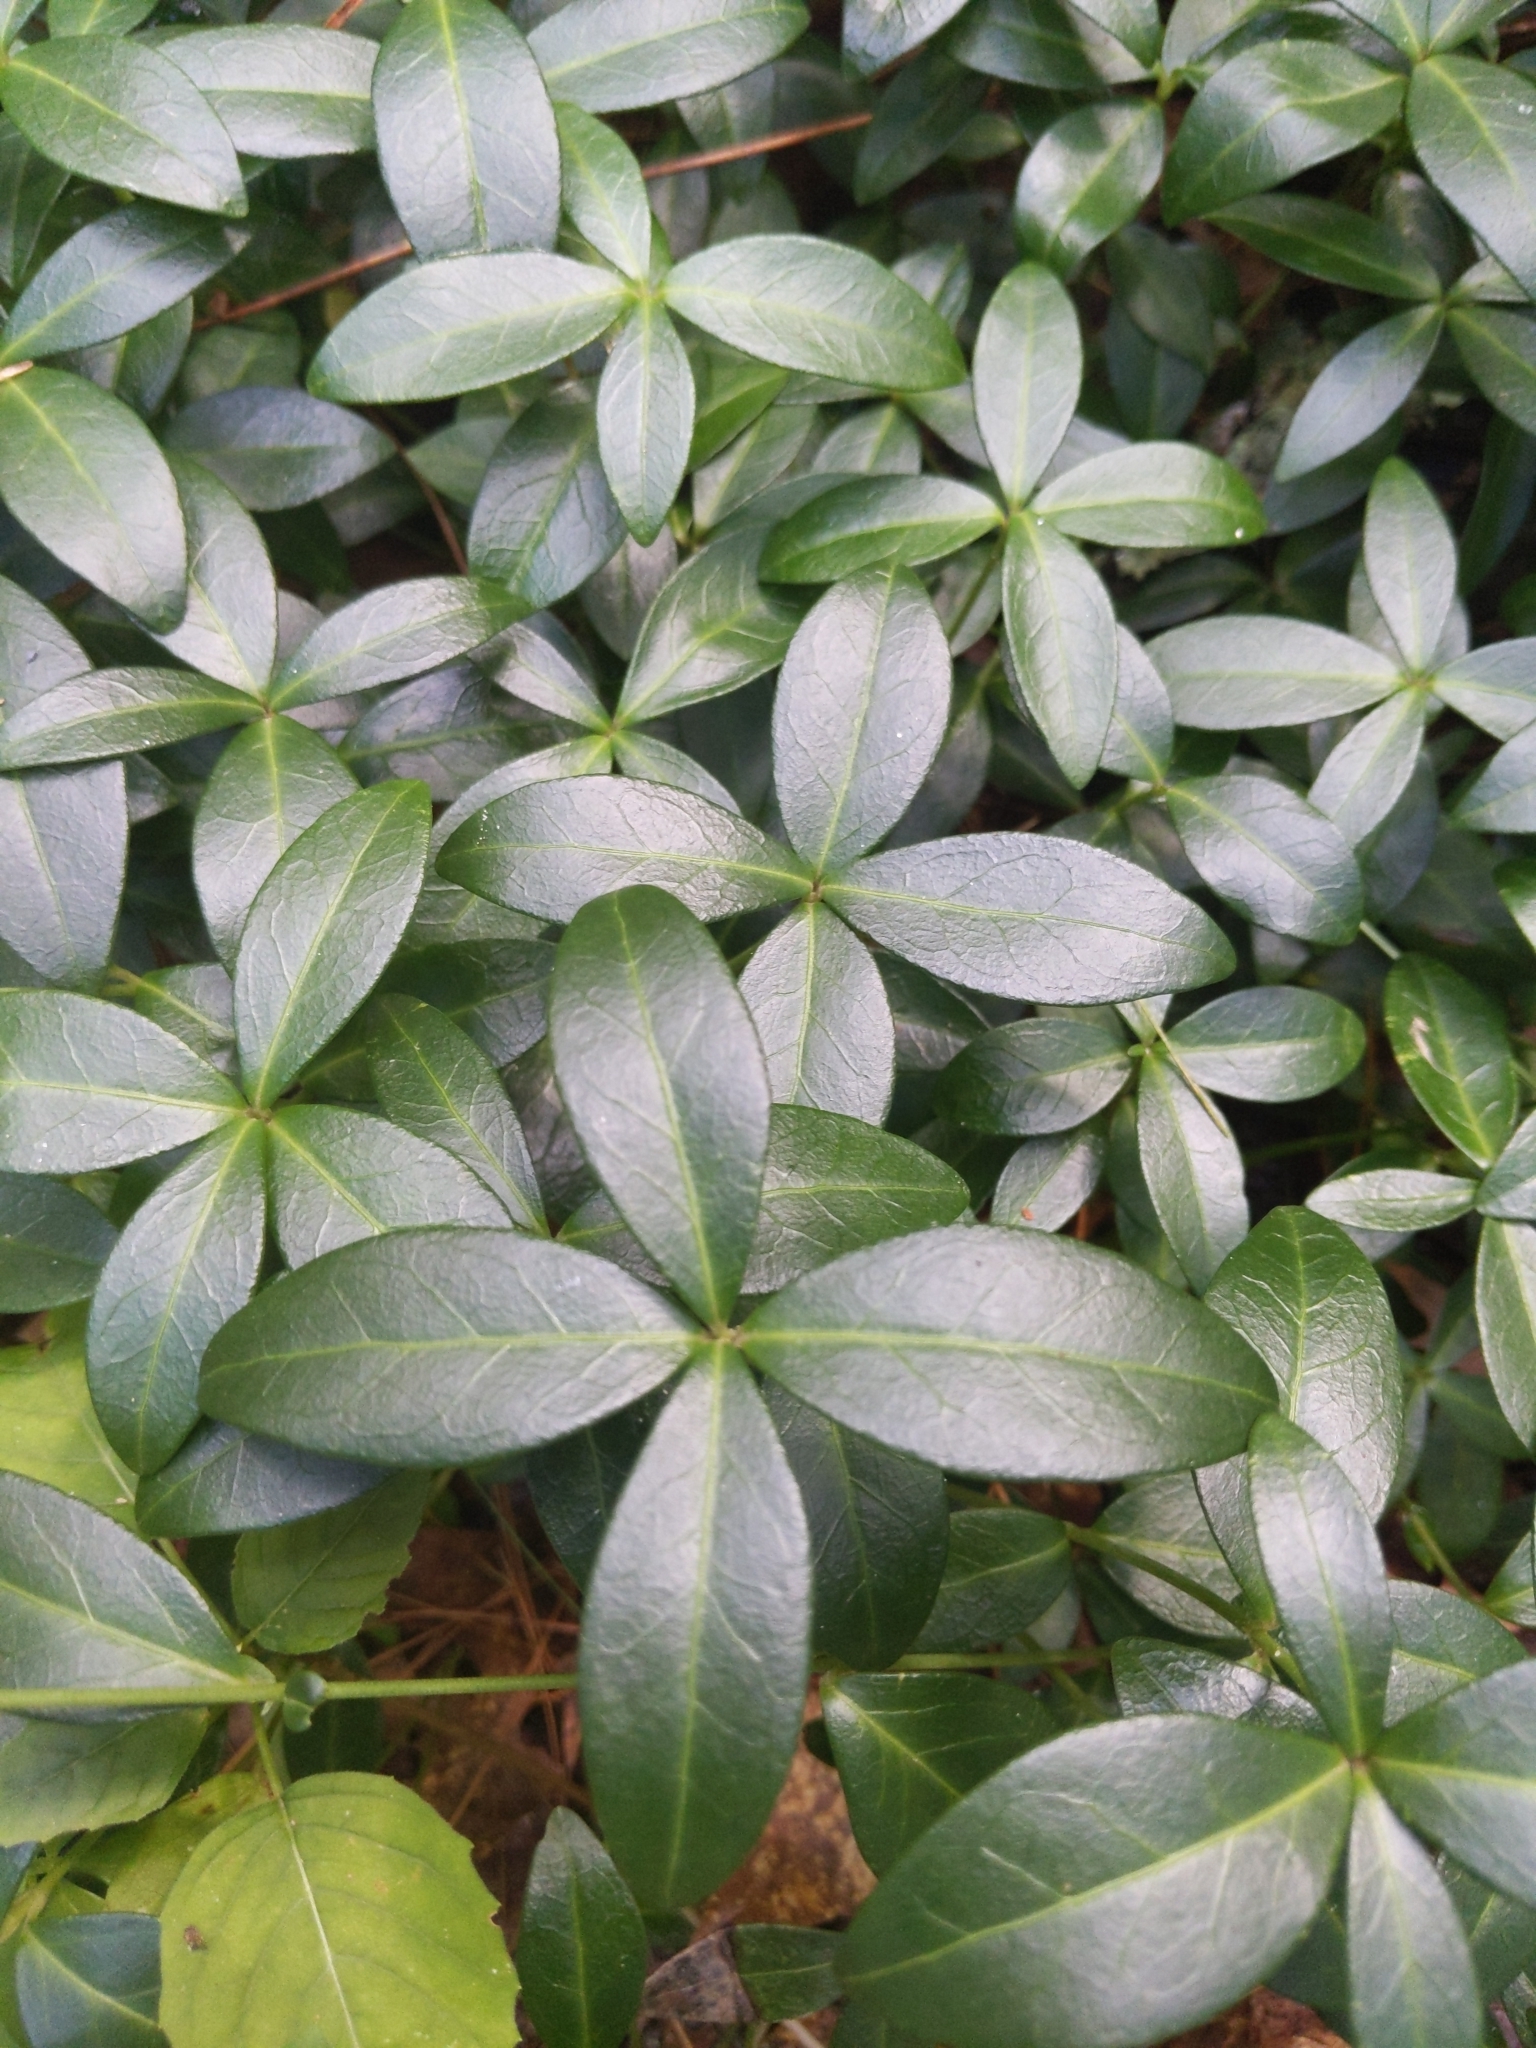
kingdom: Plantae
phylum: Tracheophyta
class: Magnoliopsida
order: Gentianales
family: Apocynaceae
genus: Vinca
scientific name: Vinca minor
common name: Lesser periwinkle
